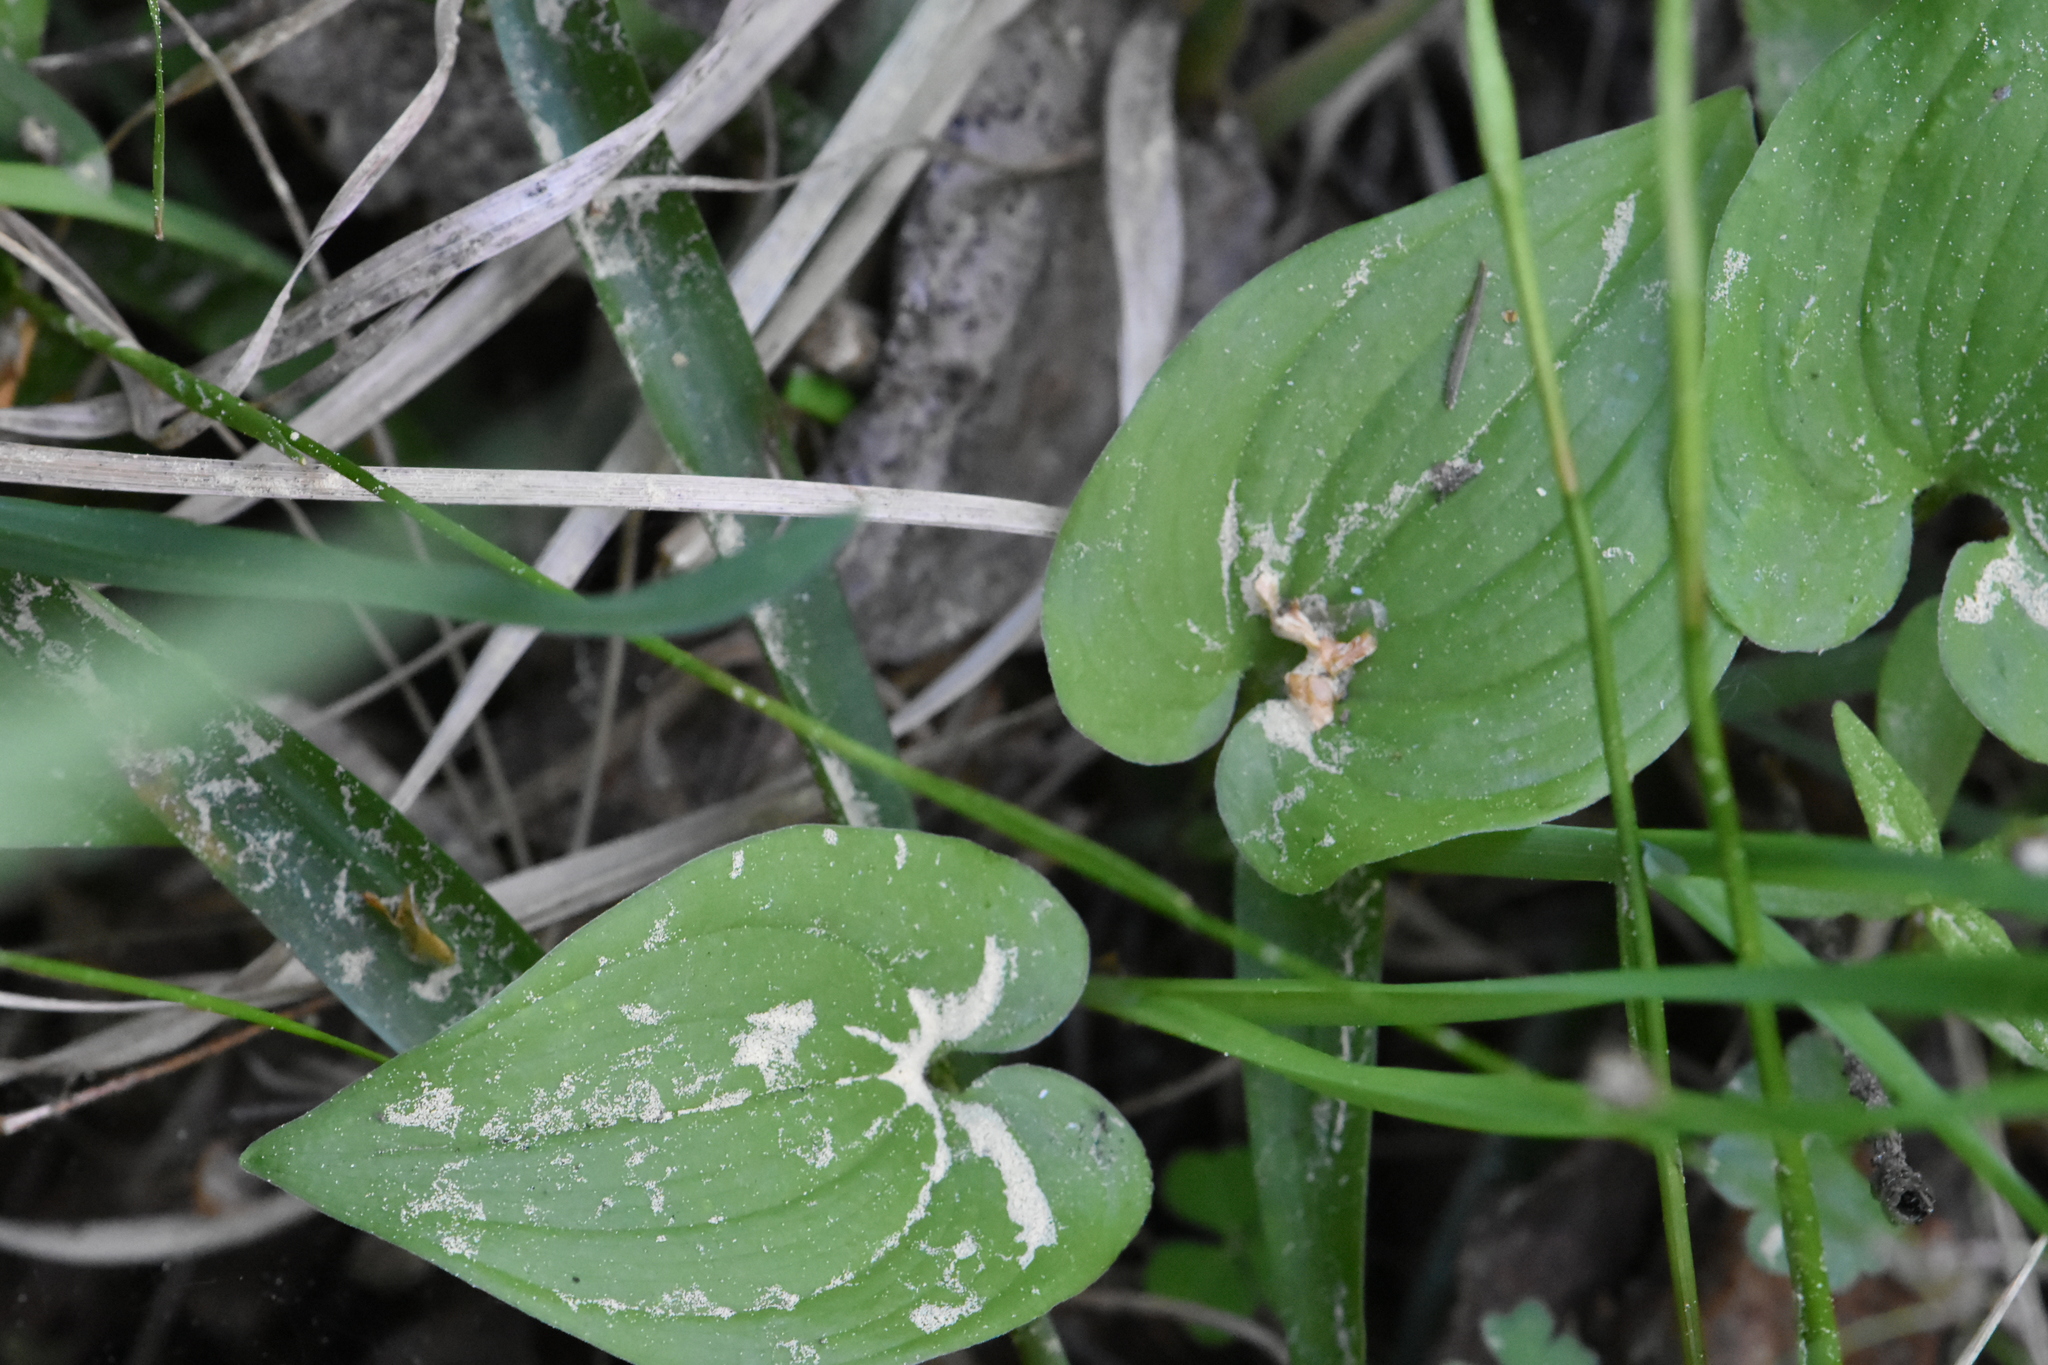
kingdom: Plantae
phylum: Tracheophyta
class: Liliopsida
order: Asparagales
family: Asparagaceae
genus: Maianthemum
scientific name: Maianthemum bifolium
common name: May lily
